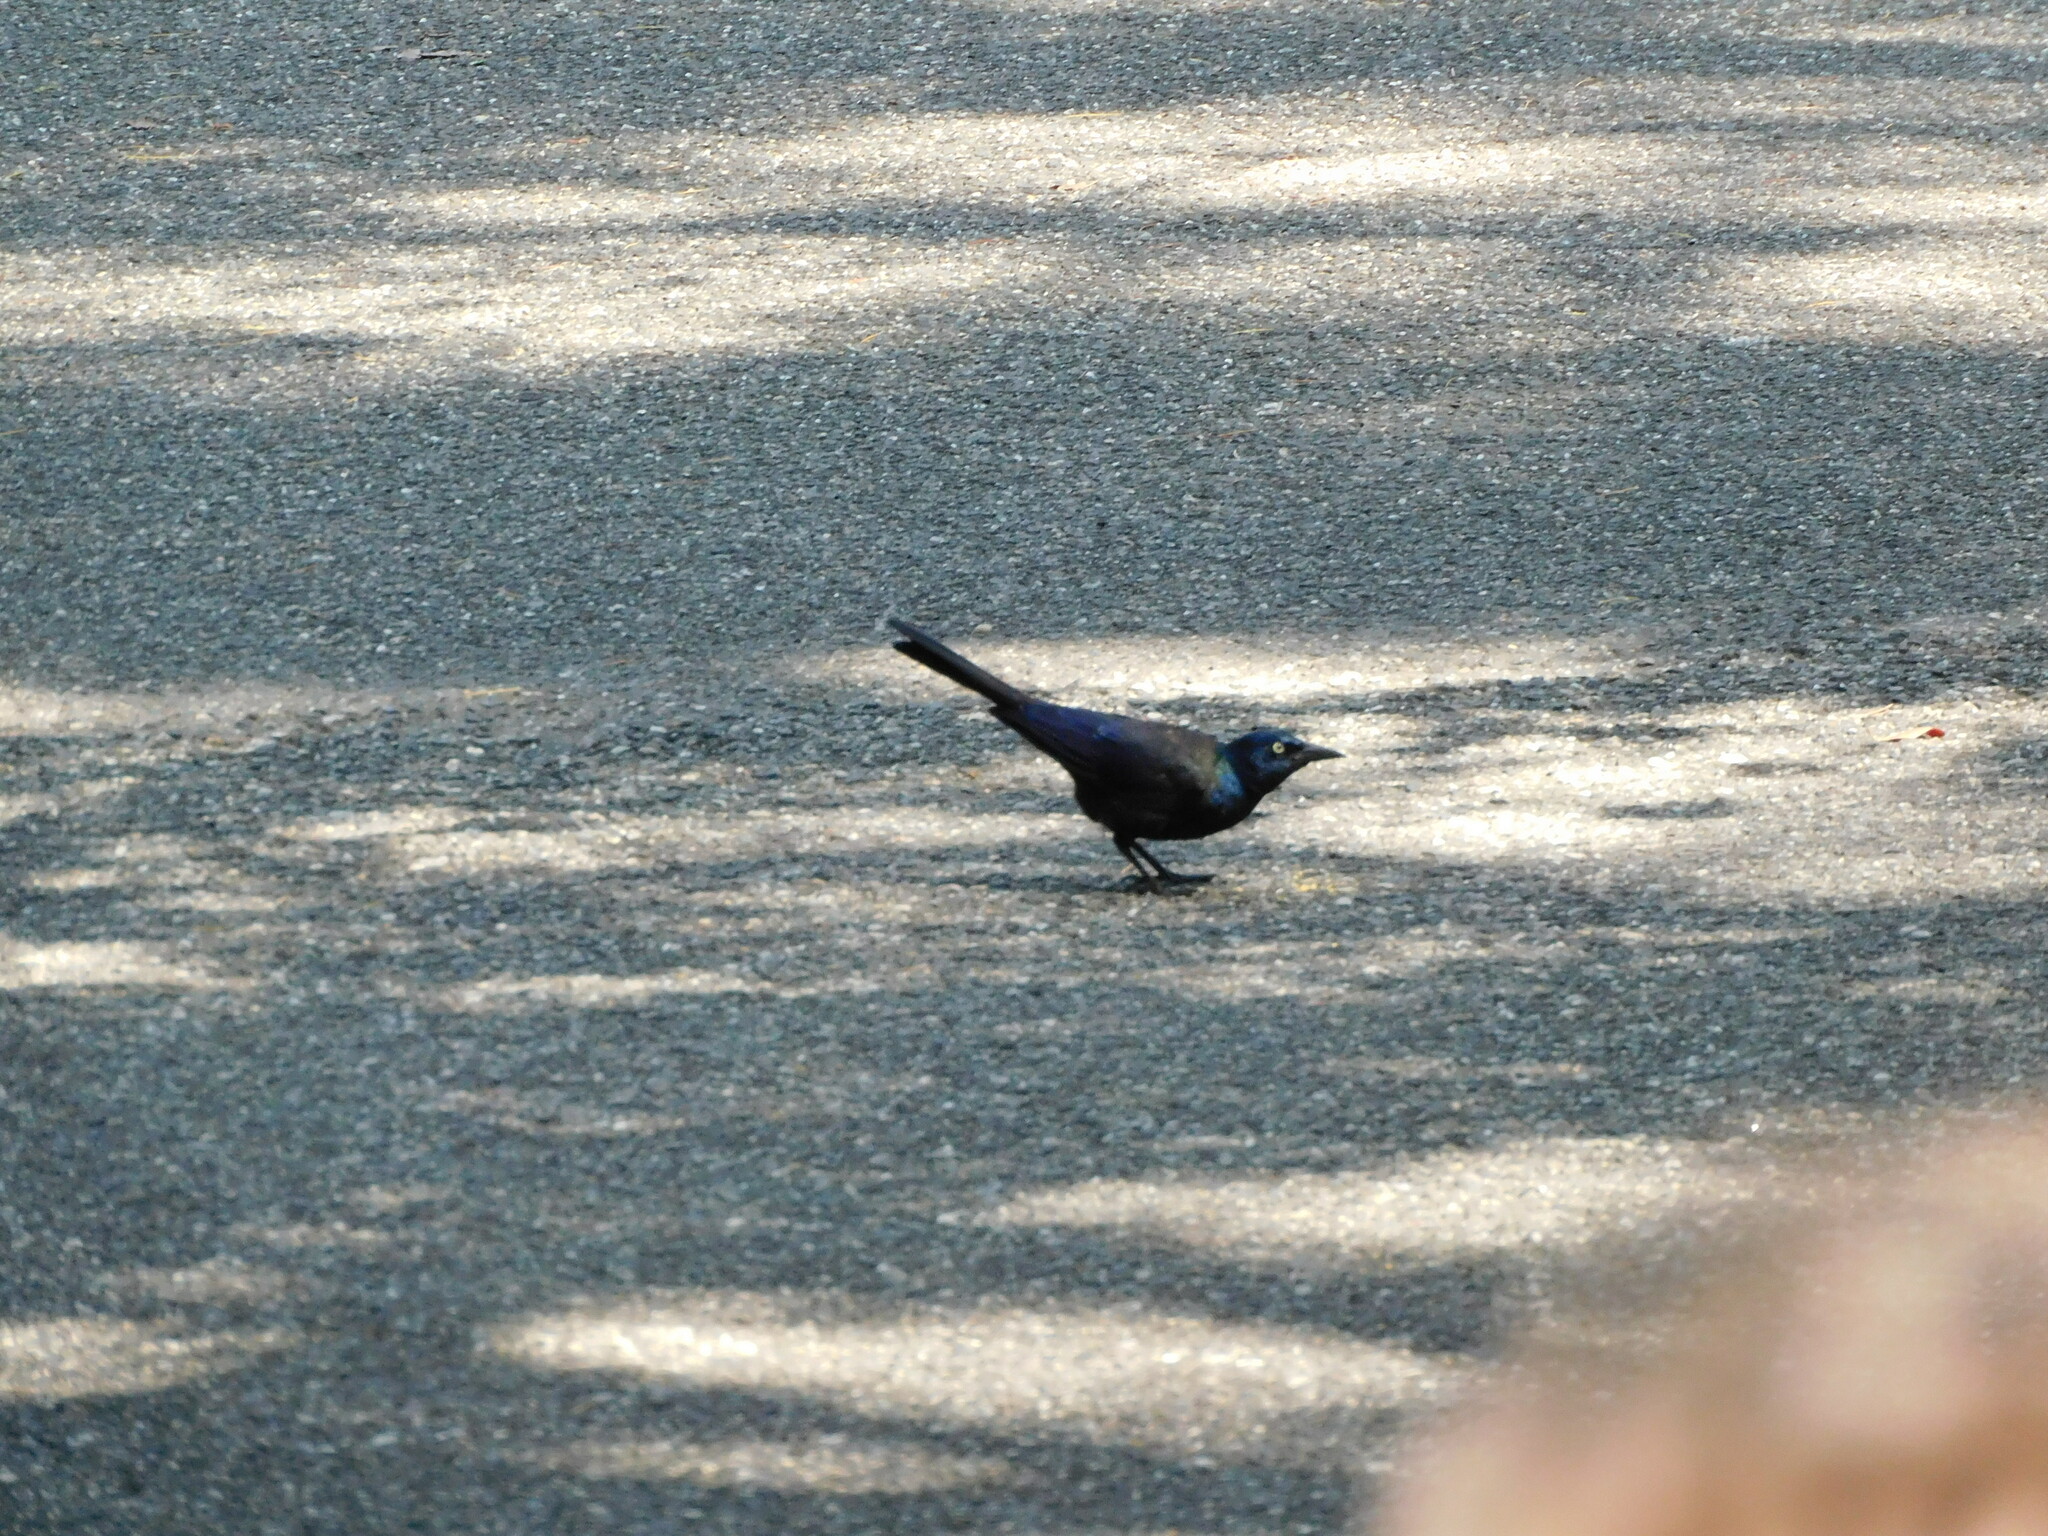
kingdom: Animalia
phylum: Chordata
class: Aves
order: Passeriformes
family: Icteridae
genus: Quiscalus
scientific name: Quiscalus quiscula
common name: Common grackle
